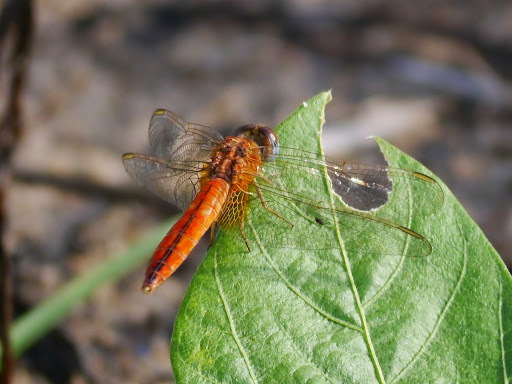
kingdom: Animalia
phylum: Arthropoda
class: Insecta
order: Odonata
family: Libellulidae
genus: Crocothemis
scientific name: Crocothemis erythraea
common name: Scarlet dragonfly
